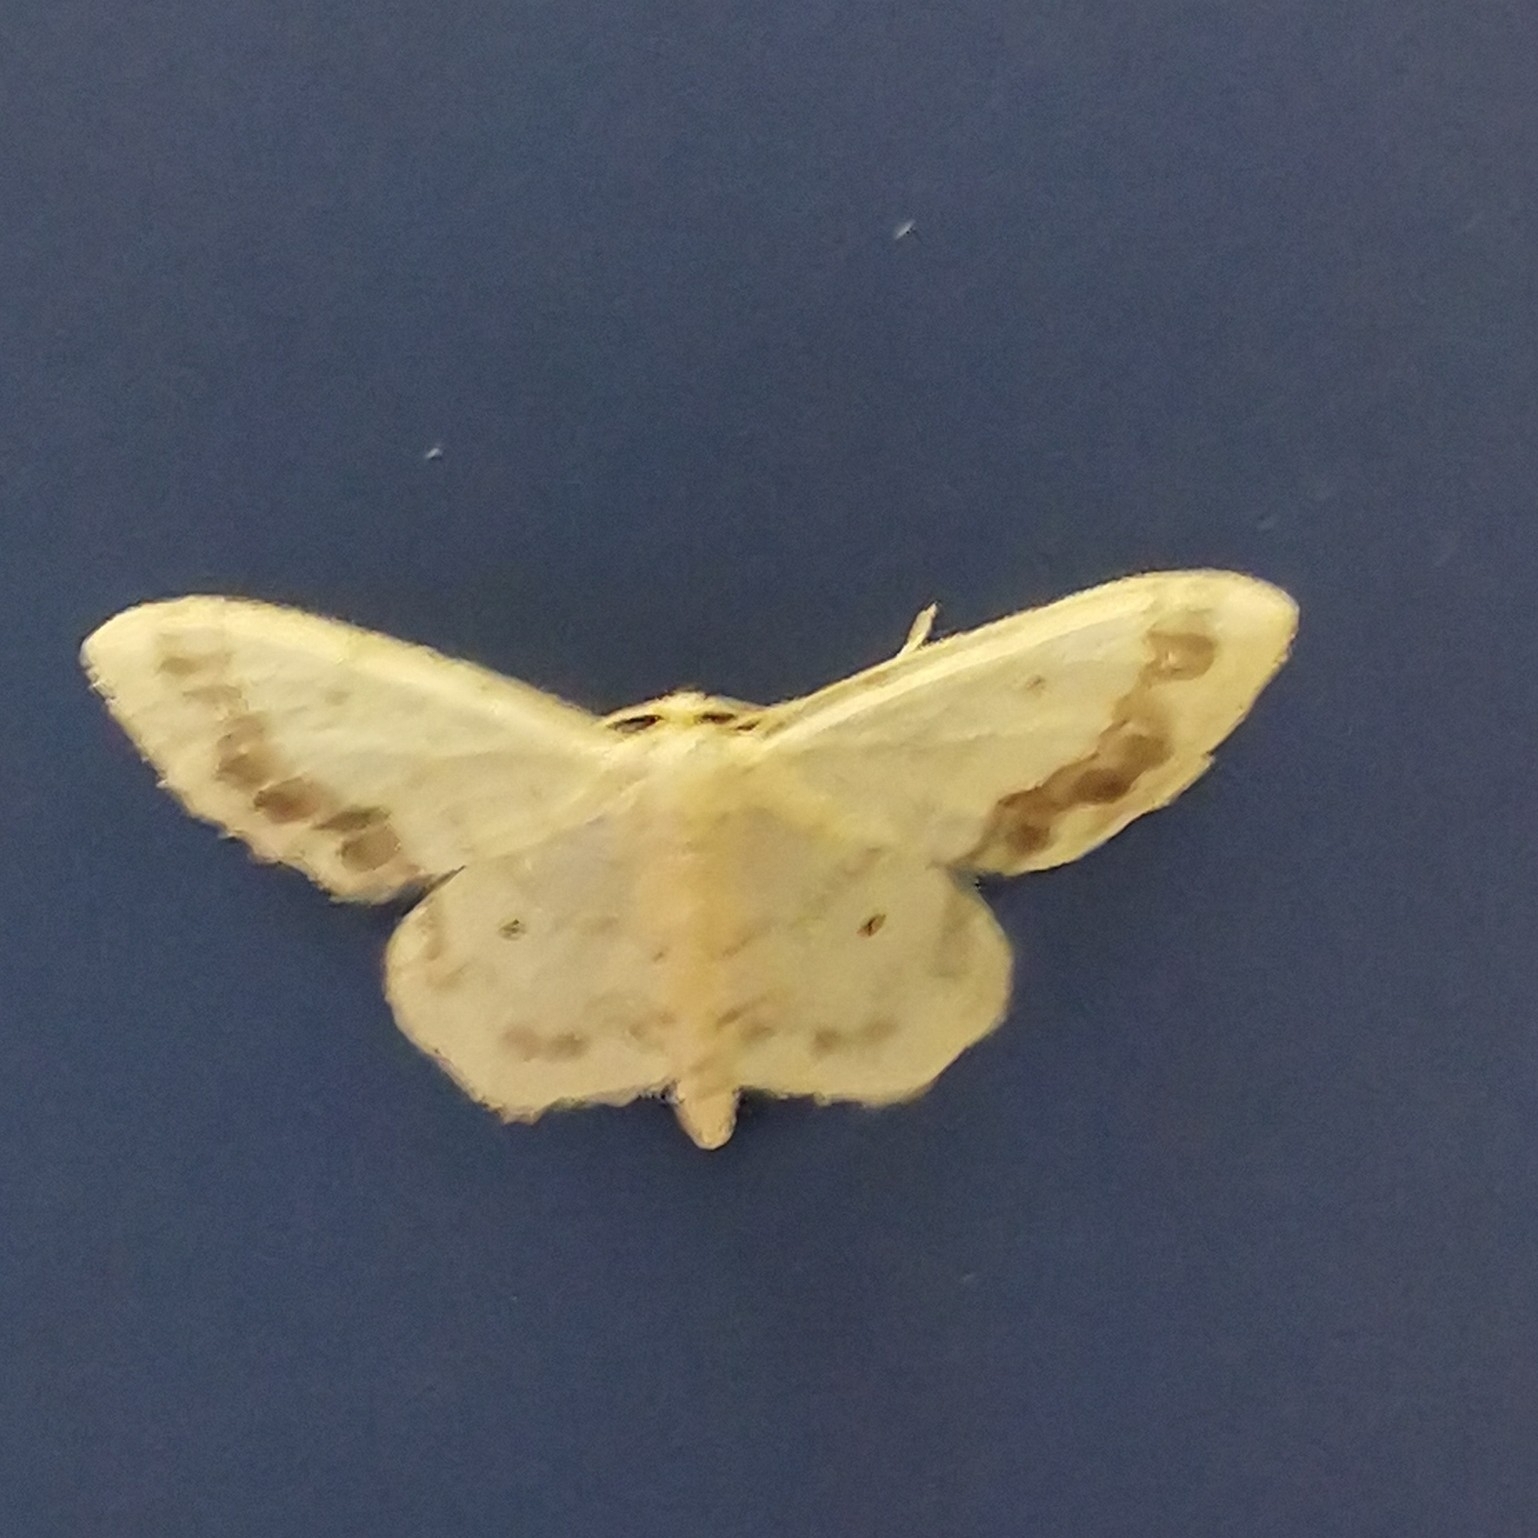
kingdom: Animalia
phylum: Arthropoda
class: Insecta
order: Lepidoptera
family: Geometridae
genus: Idaea
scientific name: Idaea biselata
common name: Small fan-footed wave
